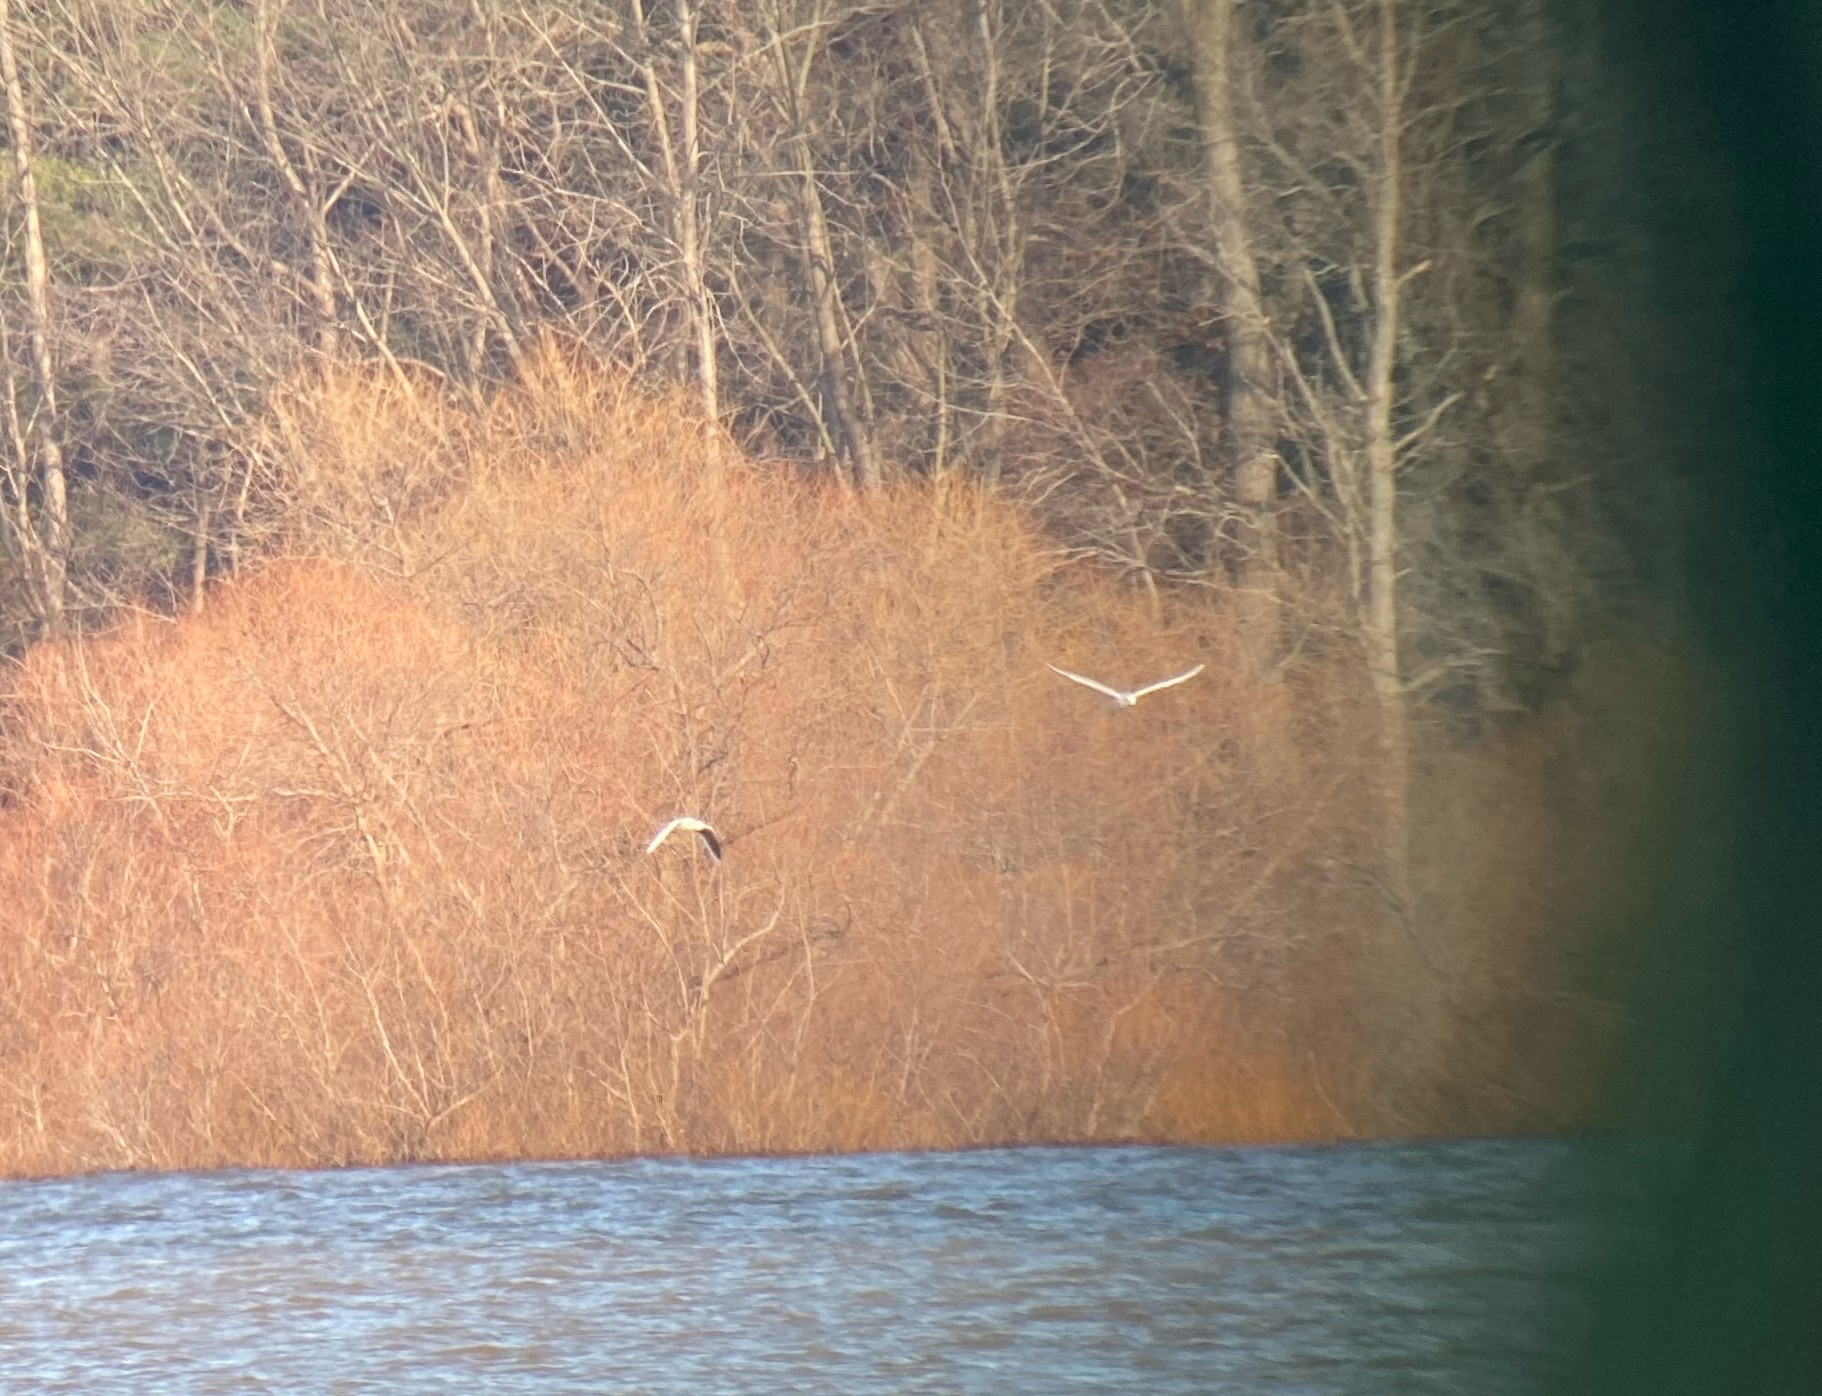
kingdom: Animalia
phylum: Chordata
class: Aves
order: Charadriiformes
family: Laridae
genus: Hydrocoloeus
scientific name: Hydrocoloeus minutus
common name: Little gull
